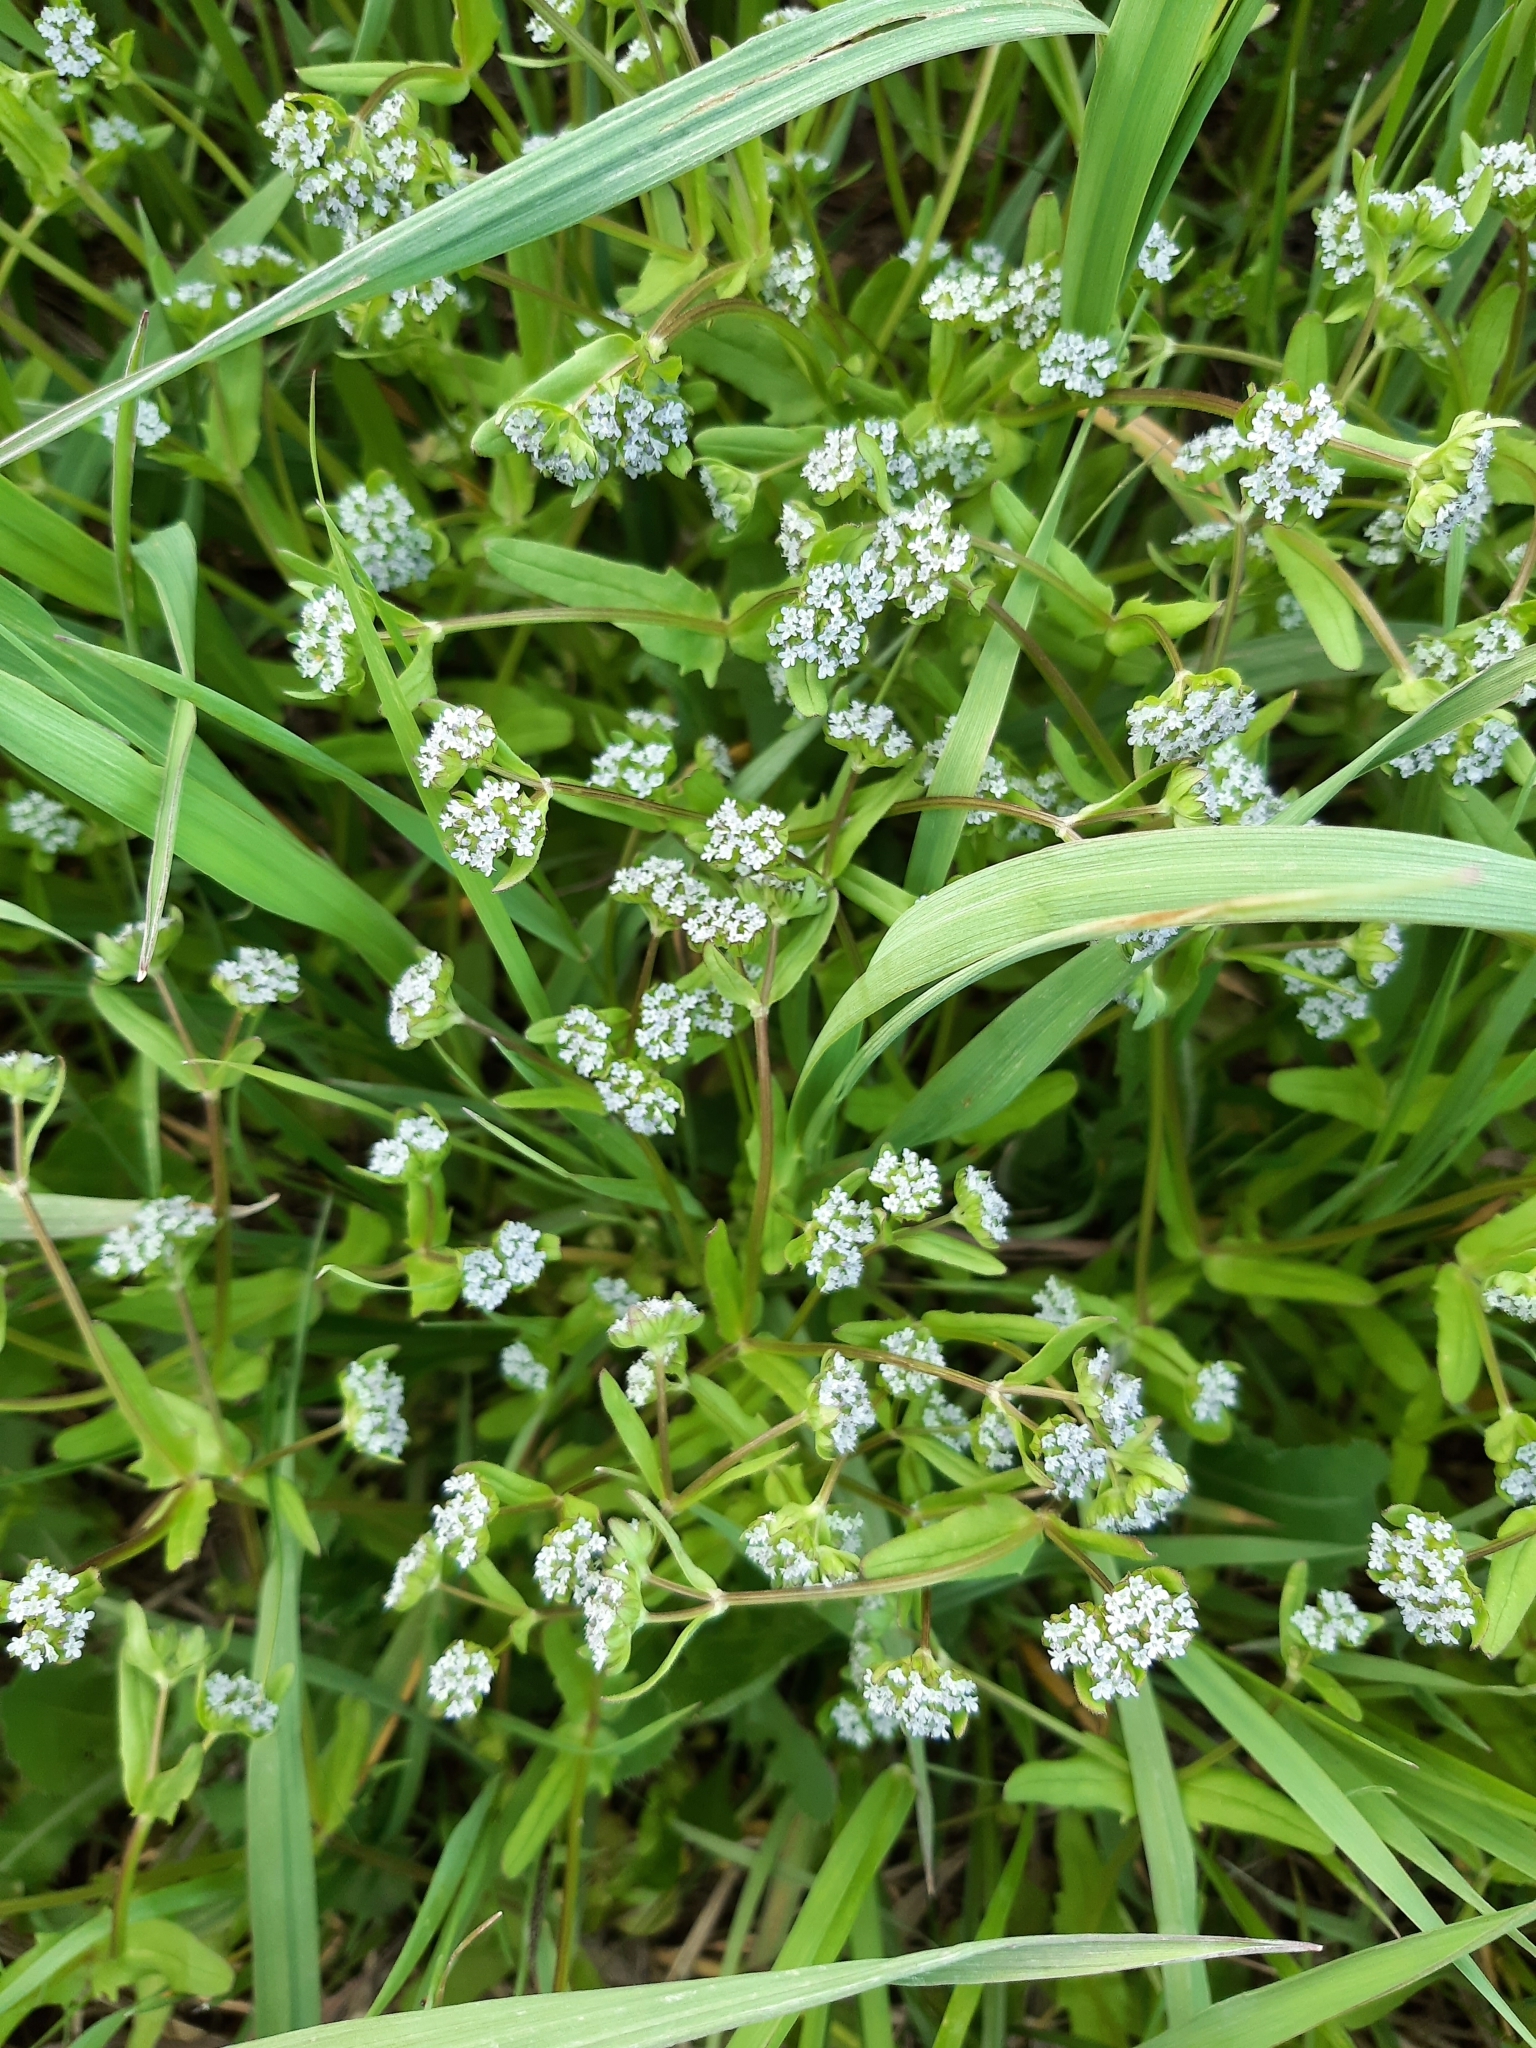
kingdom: Plantae
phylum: Tracheophyta
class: Magnoliopsida
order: Dipsacales
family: Caprifoliaceae
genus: Valerianella
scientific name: Valerianella locusta
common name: Common cornsalad
